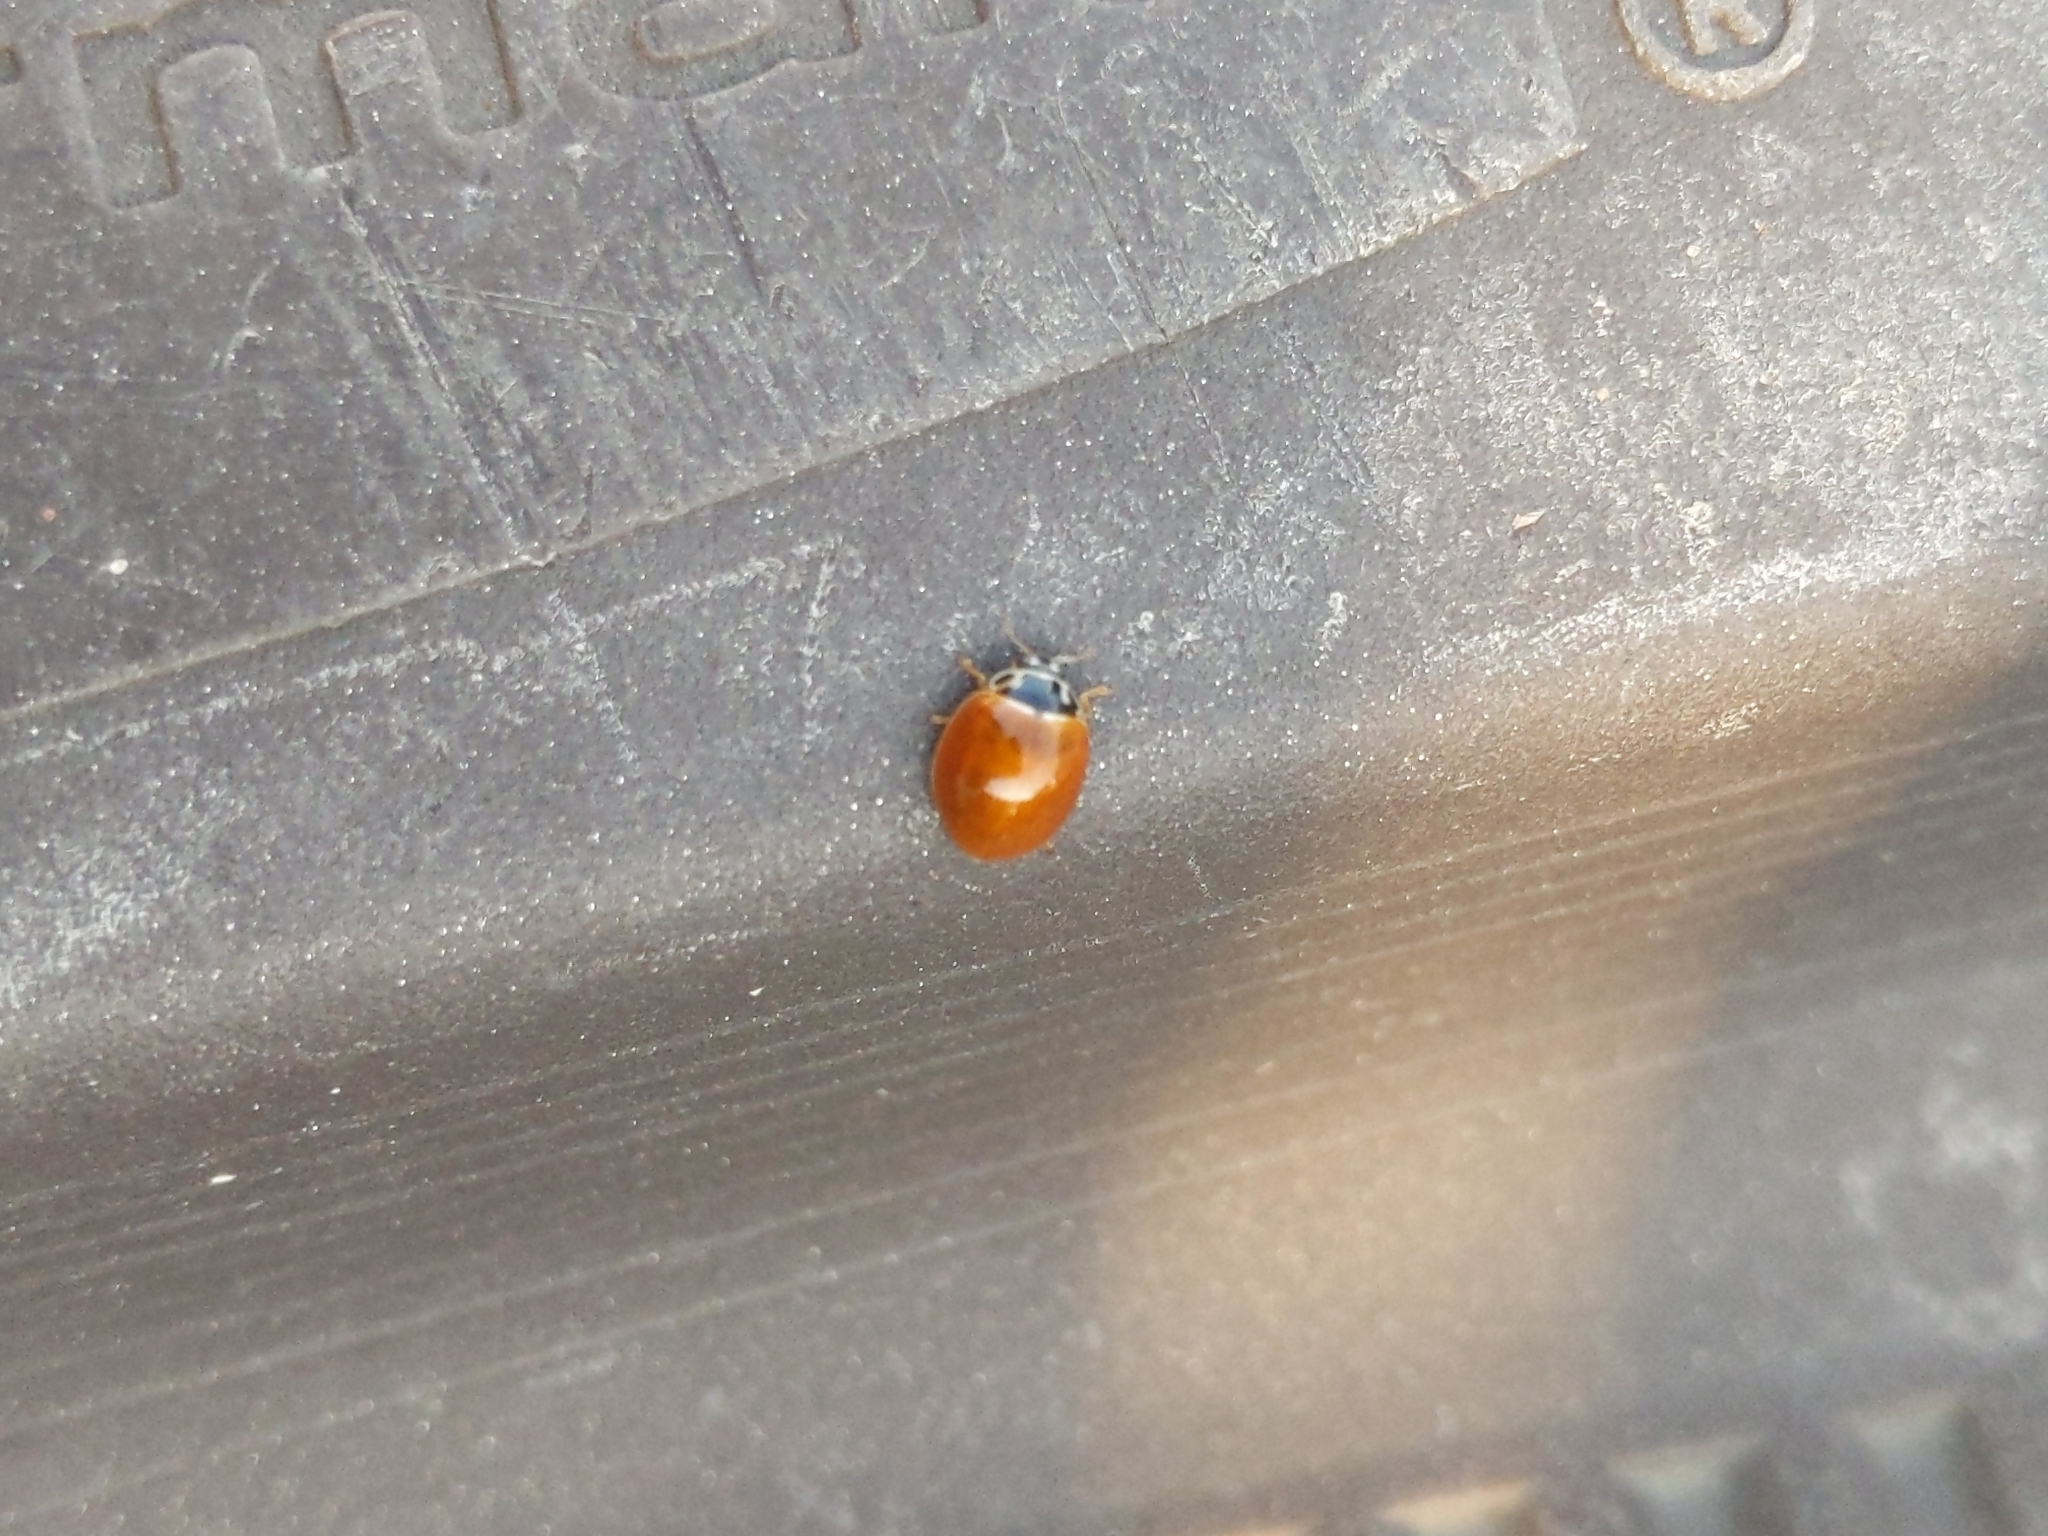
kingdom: Animalia
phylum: Arthropoda
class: Insecta
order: Coleoptera
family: Coccinellidae
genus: Cycloneda
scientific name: Cycloneda munda
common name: Polished lady beetle
